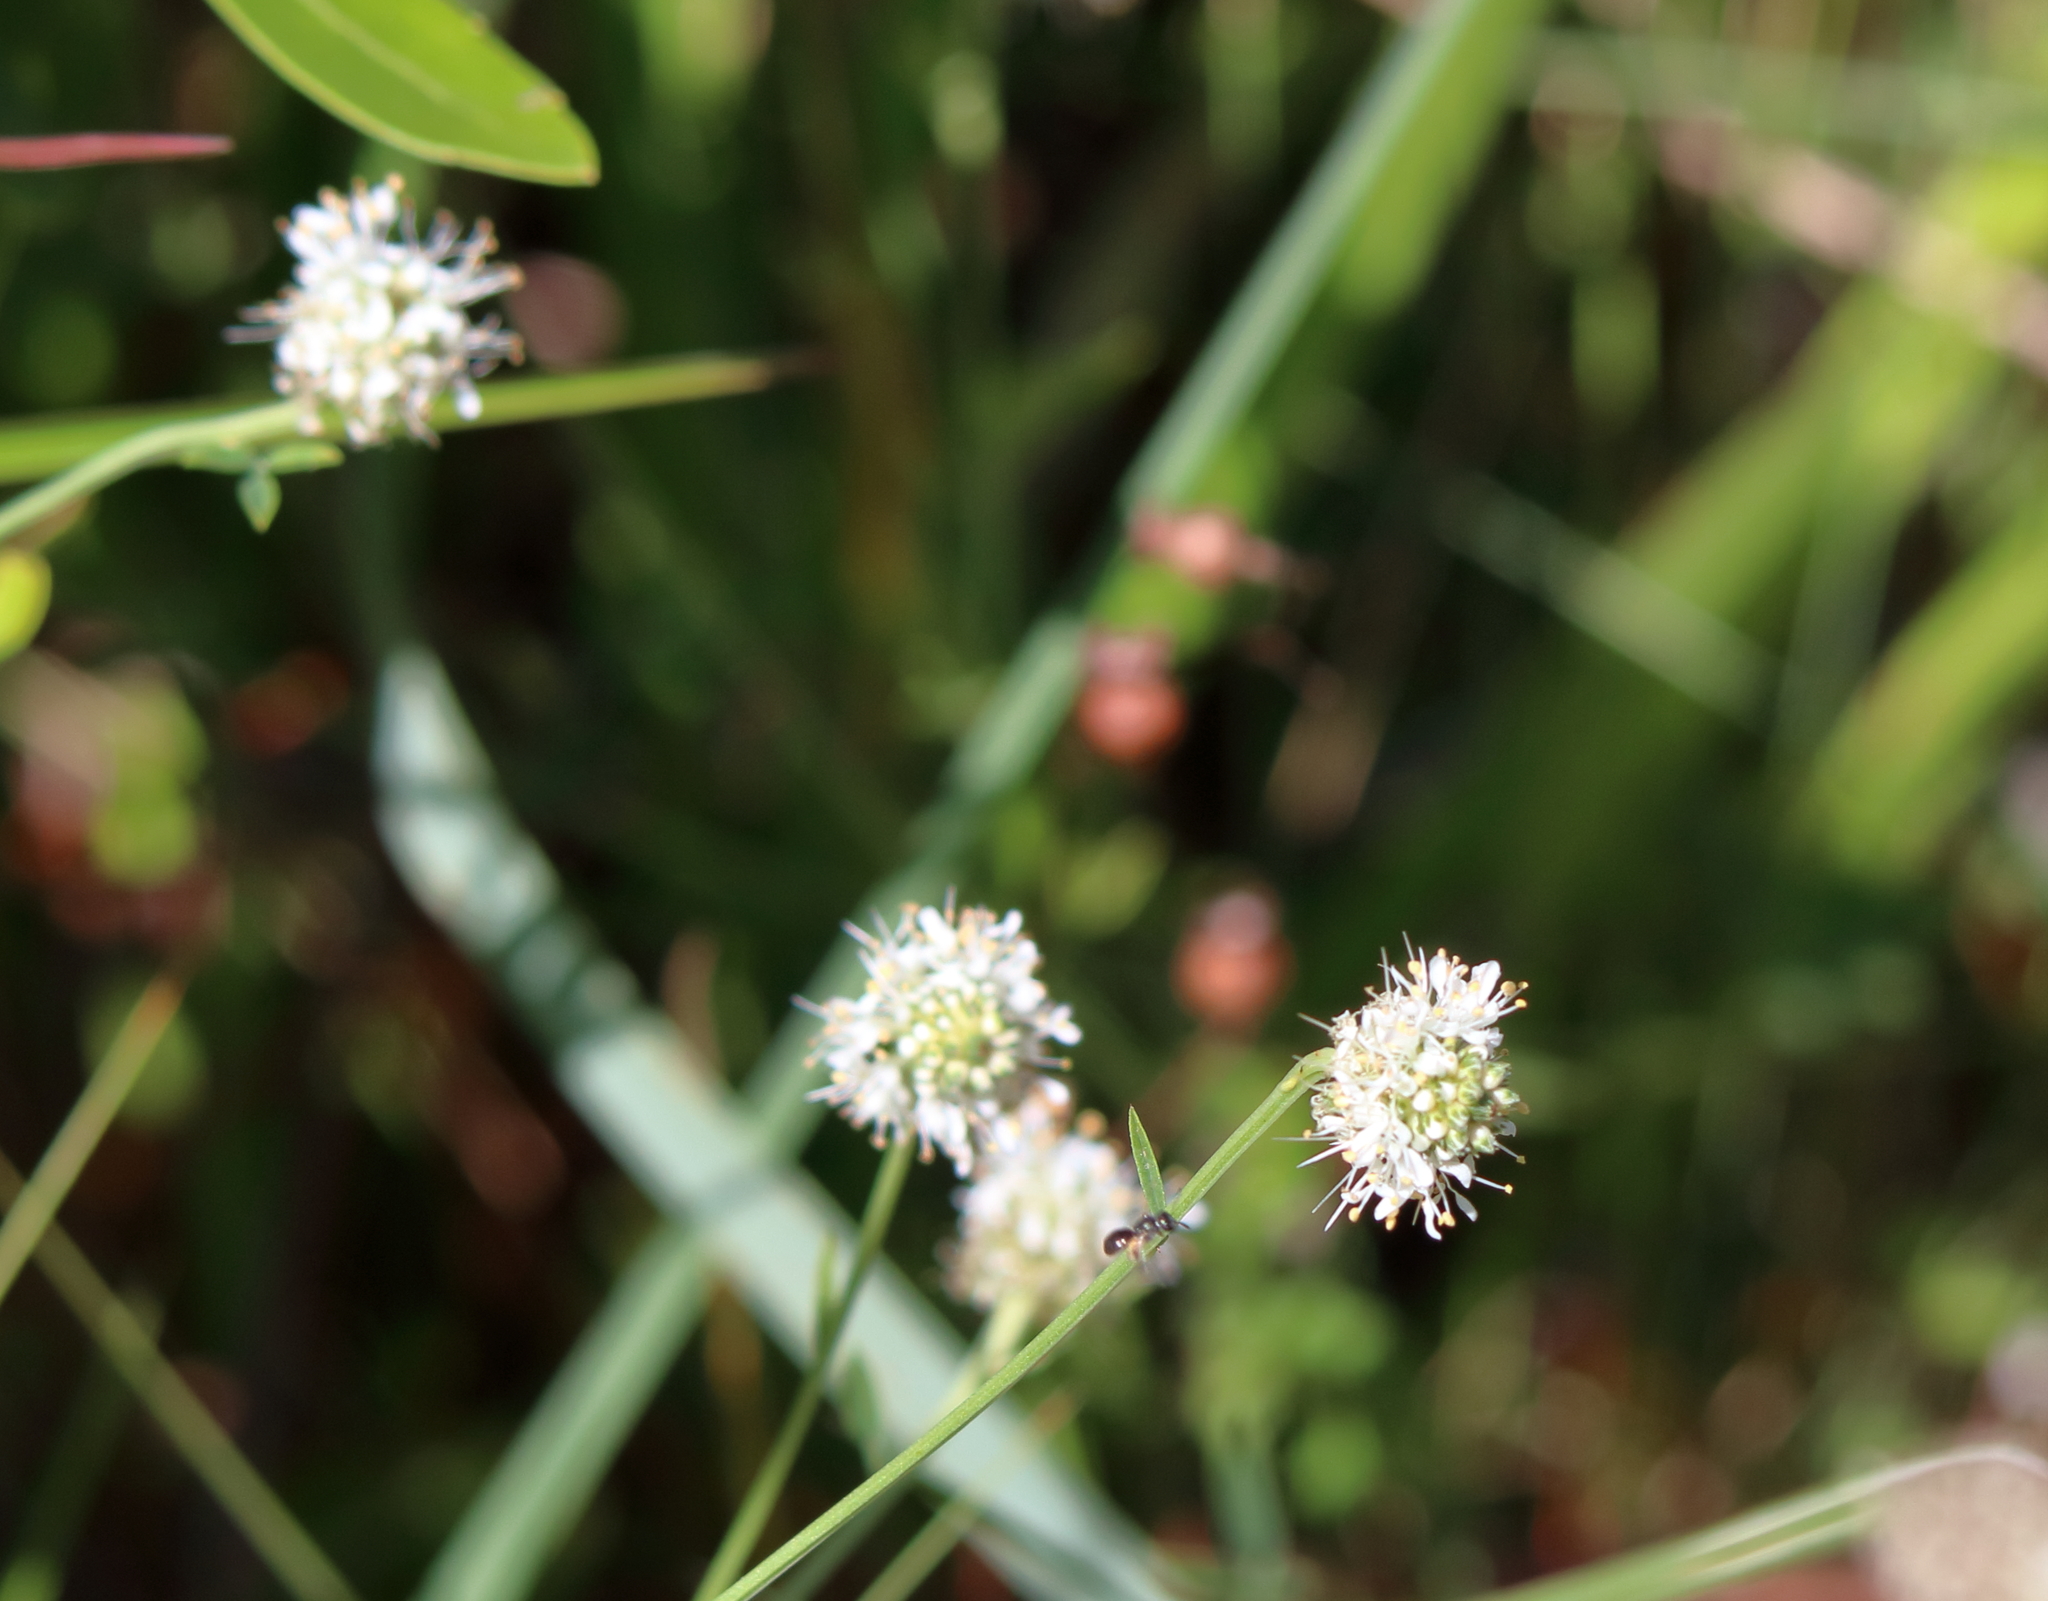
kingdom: Plantae
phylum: Tracheophyta
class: Magnoliopsida
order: Fabales
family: Fabaceae
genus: Dalea
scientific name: Dalea mountjoyae
